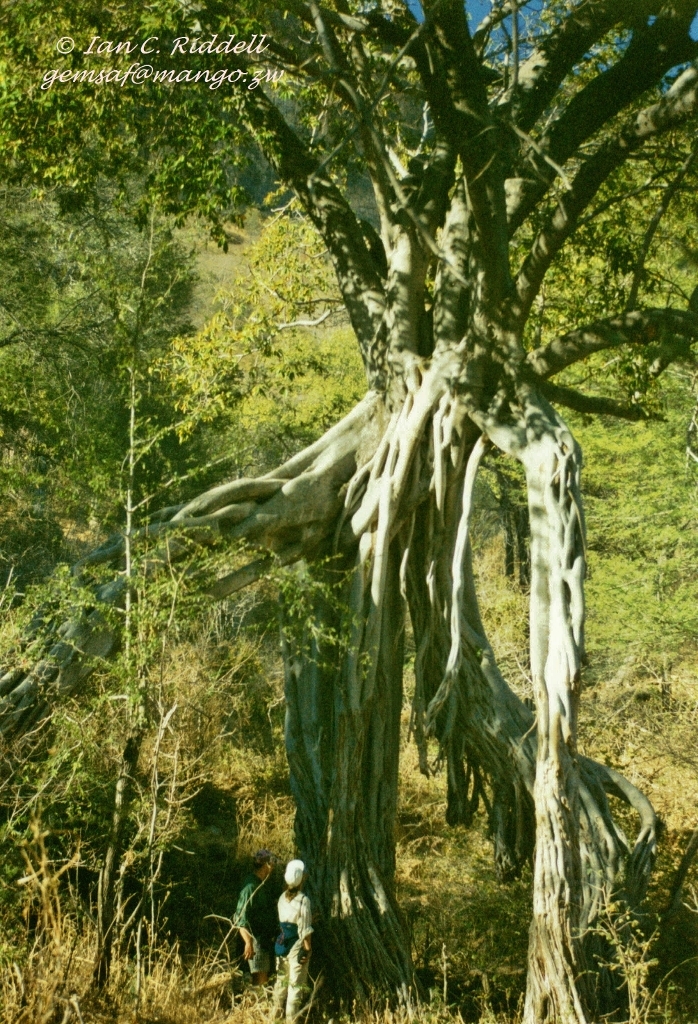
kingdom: Plantae
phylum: Tracheophyta
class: Magnoliopsida
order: Rosales
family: Moraceae
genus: Ficus
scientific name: Ficus sansibarica
